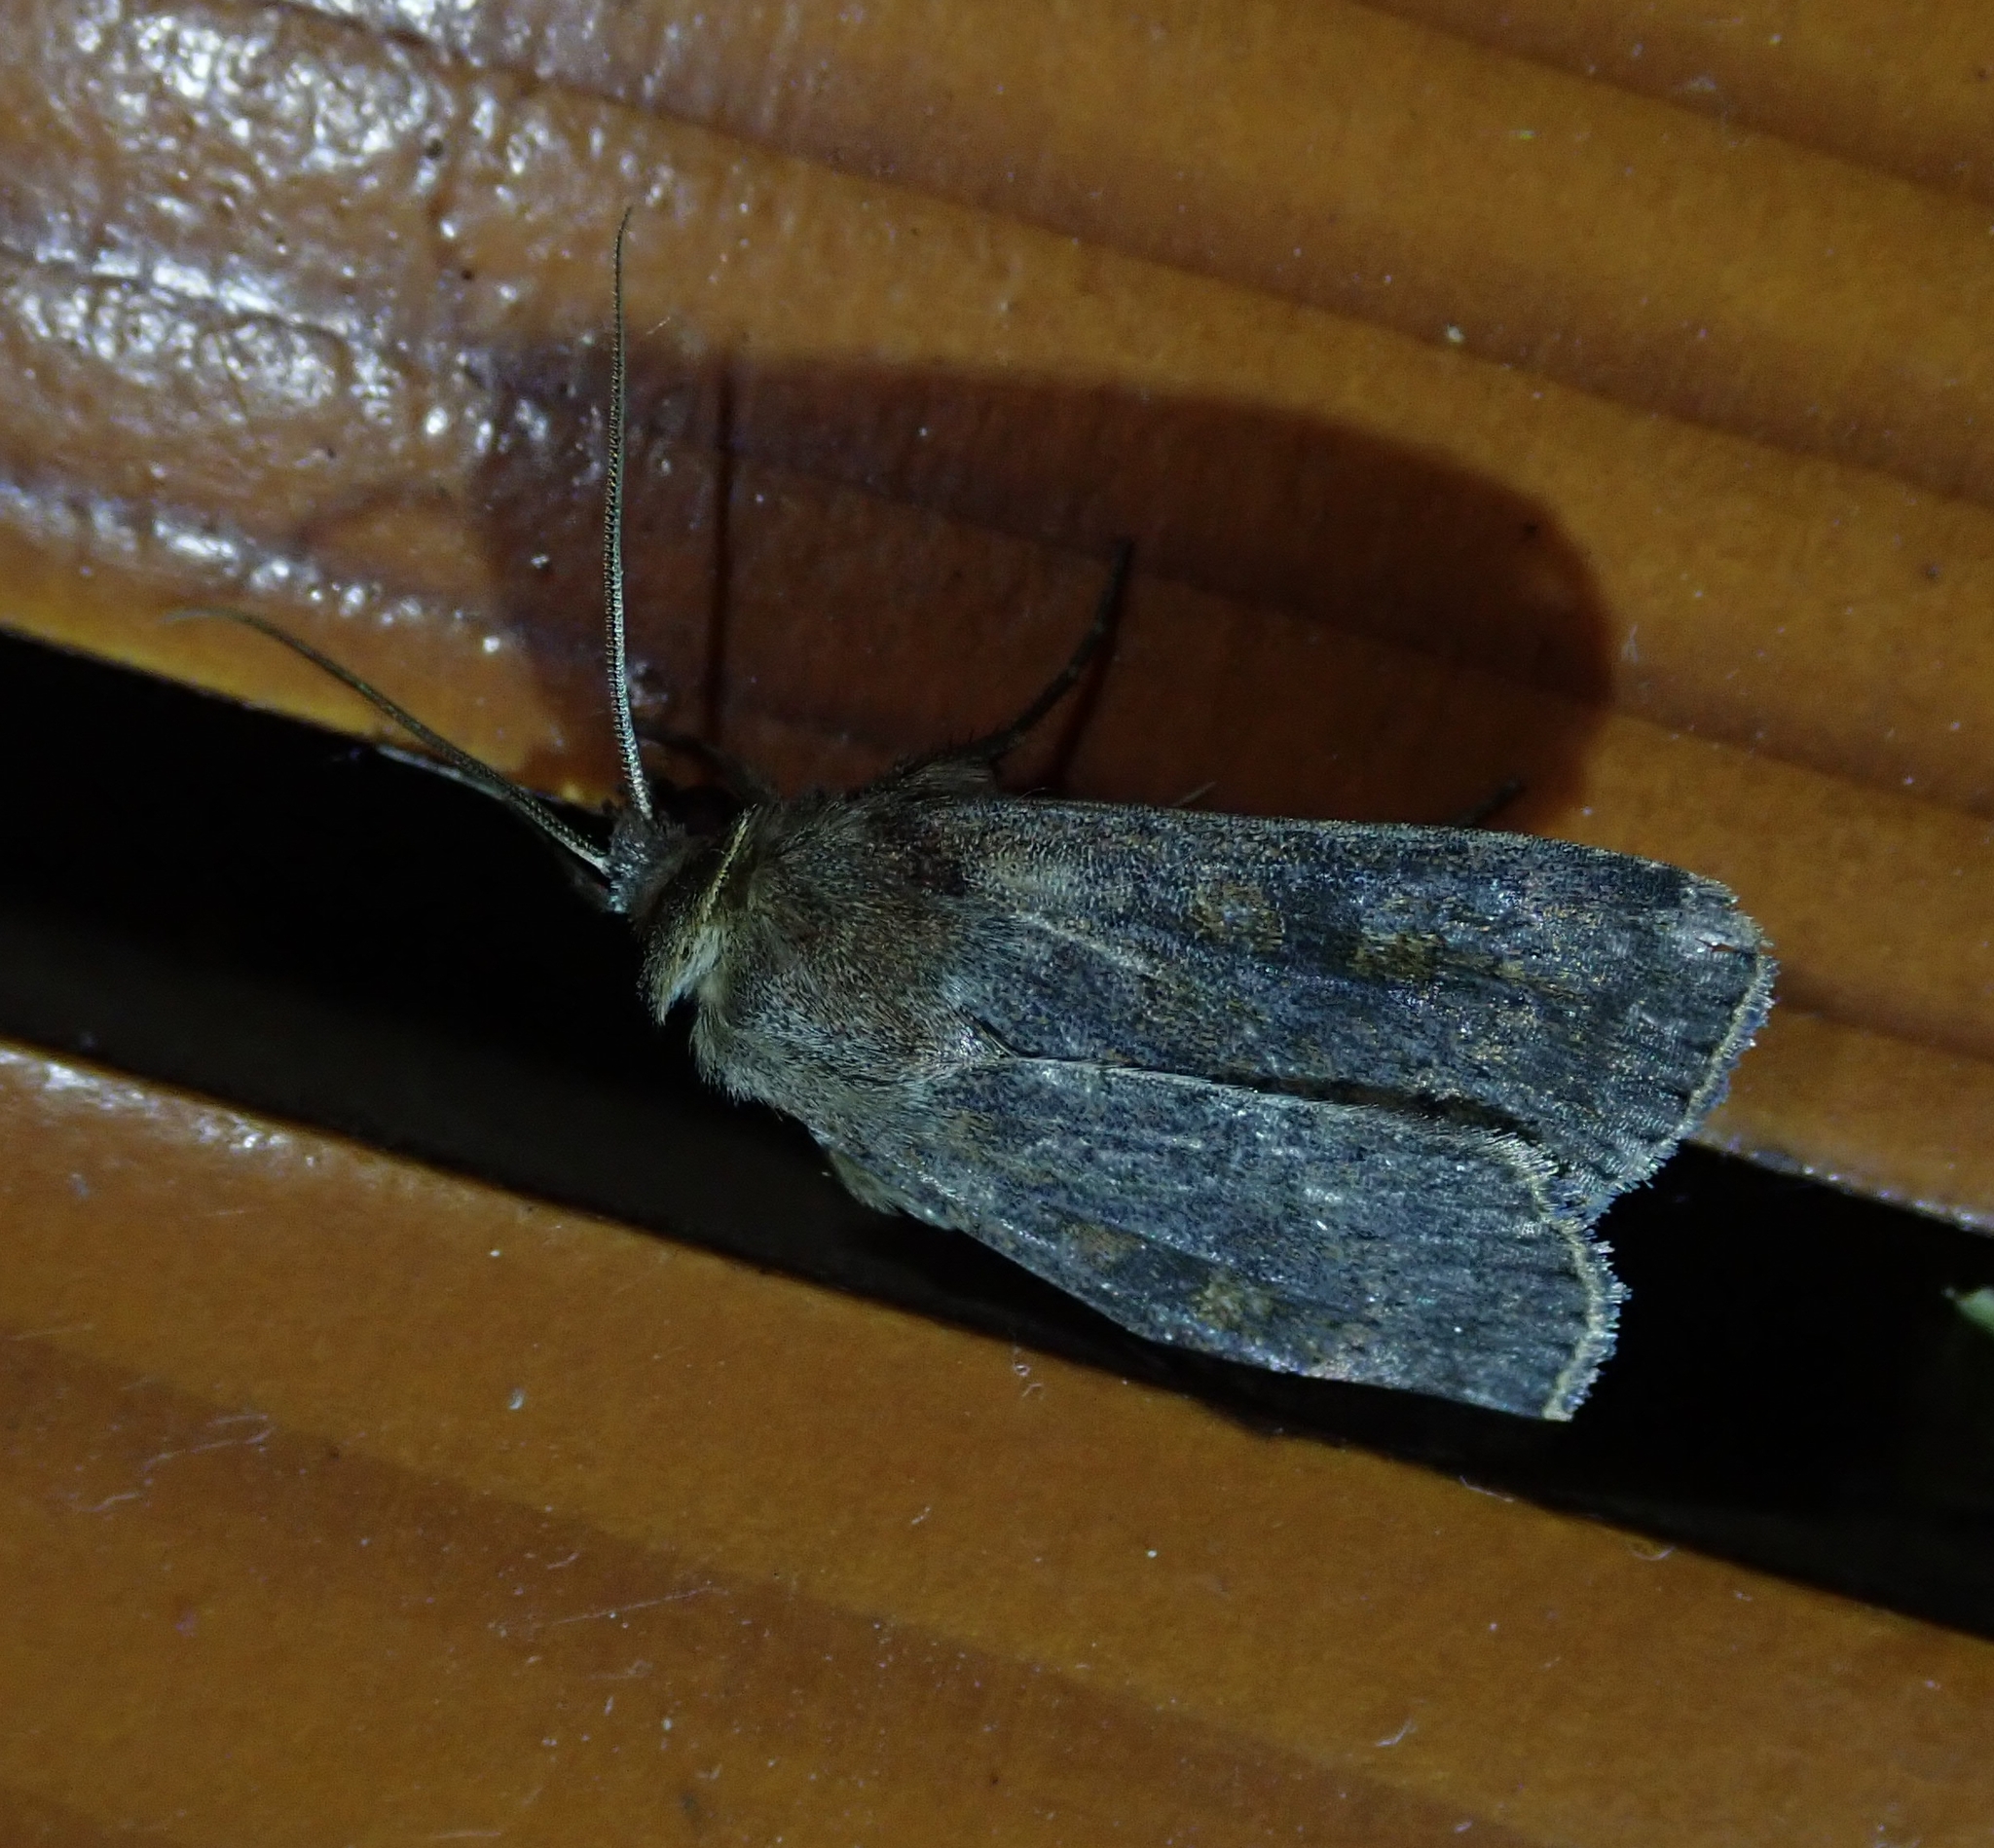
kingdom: Animalia
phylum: Arthropoda
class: Insecta
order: Lepidoptera
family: Noctuidae
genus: Xestia
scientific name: Xestia xanthographa
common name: Square-spot rustic
